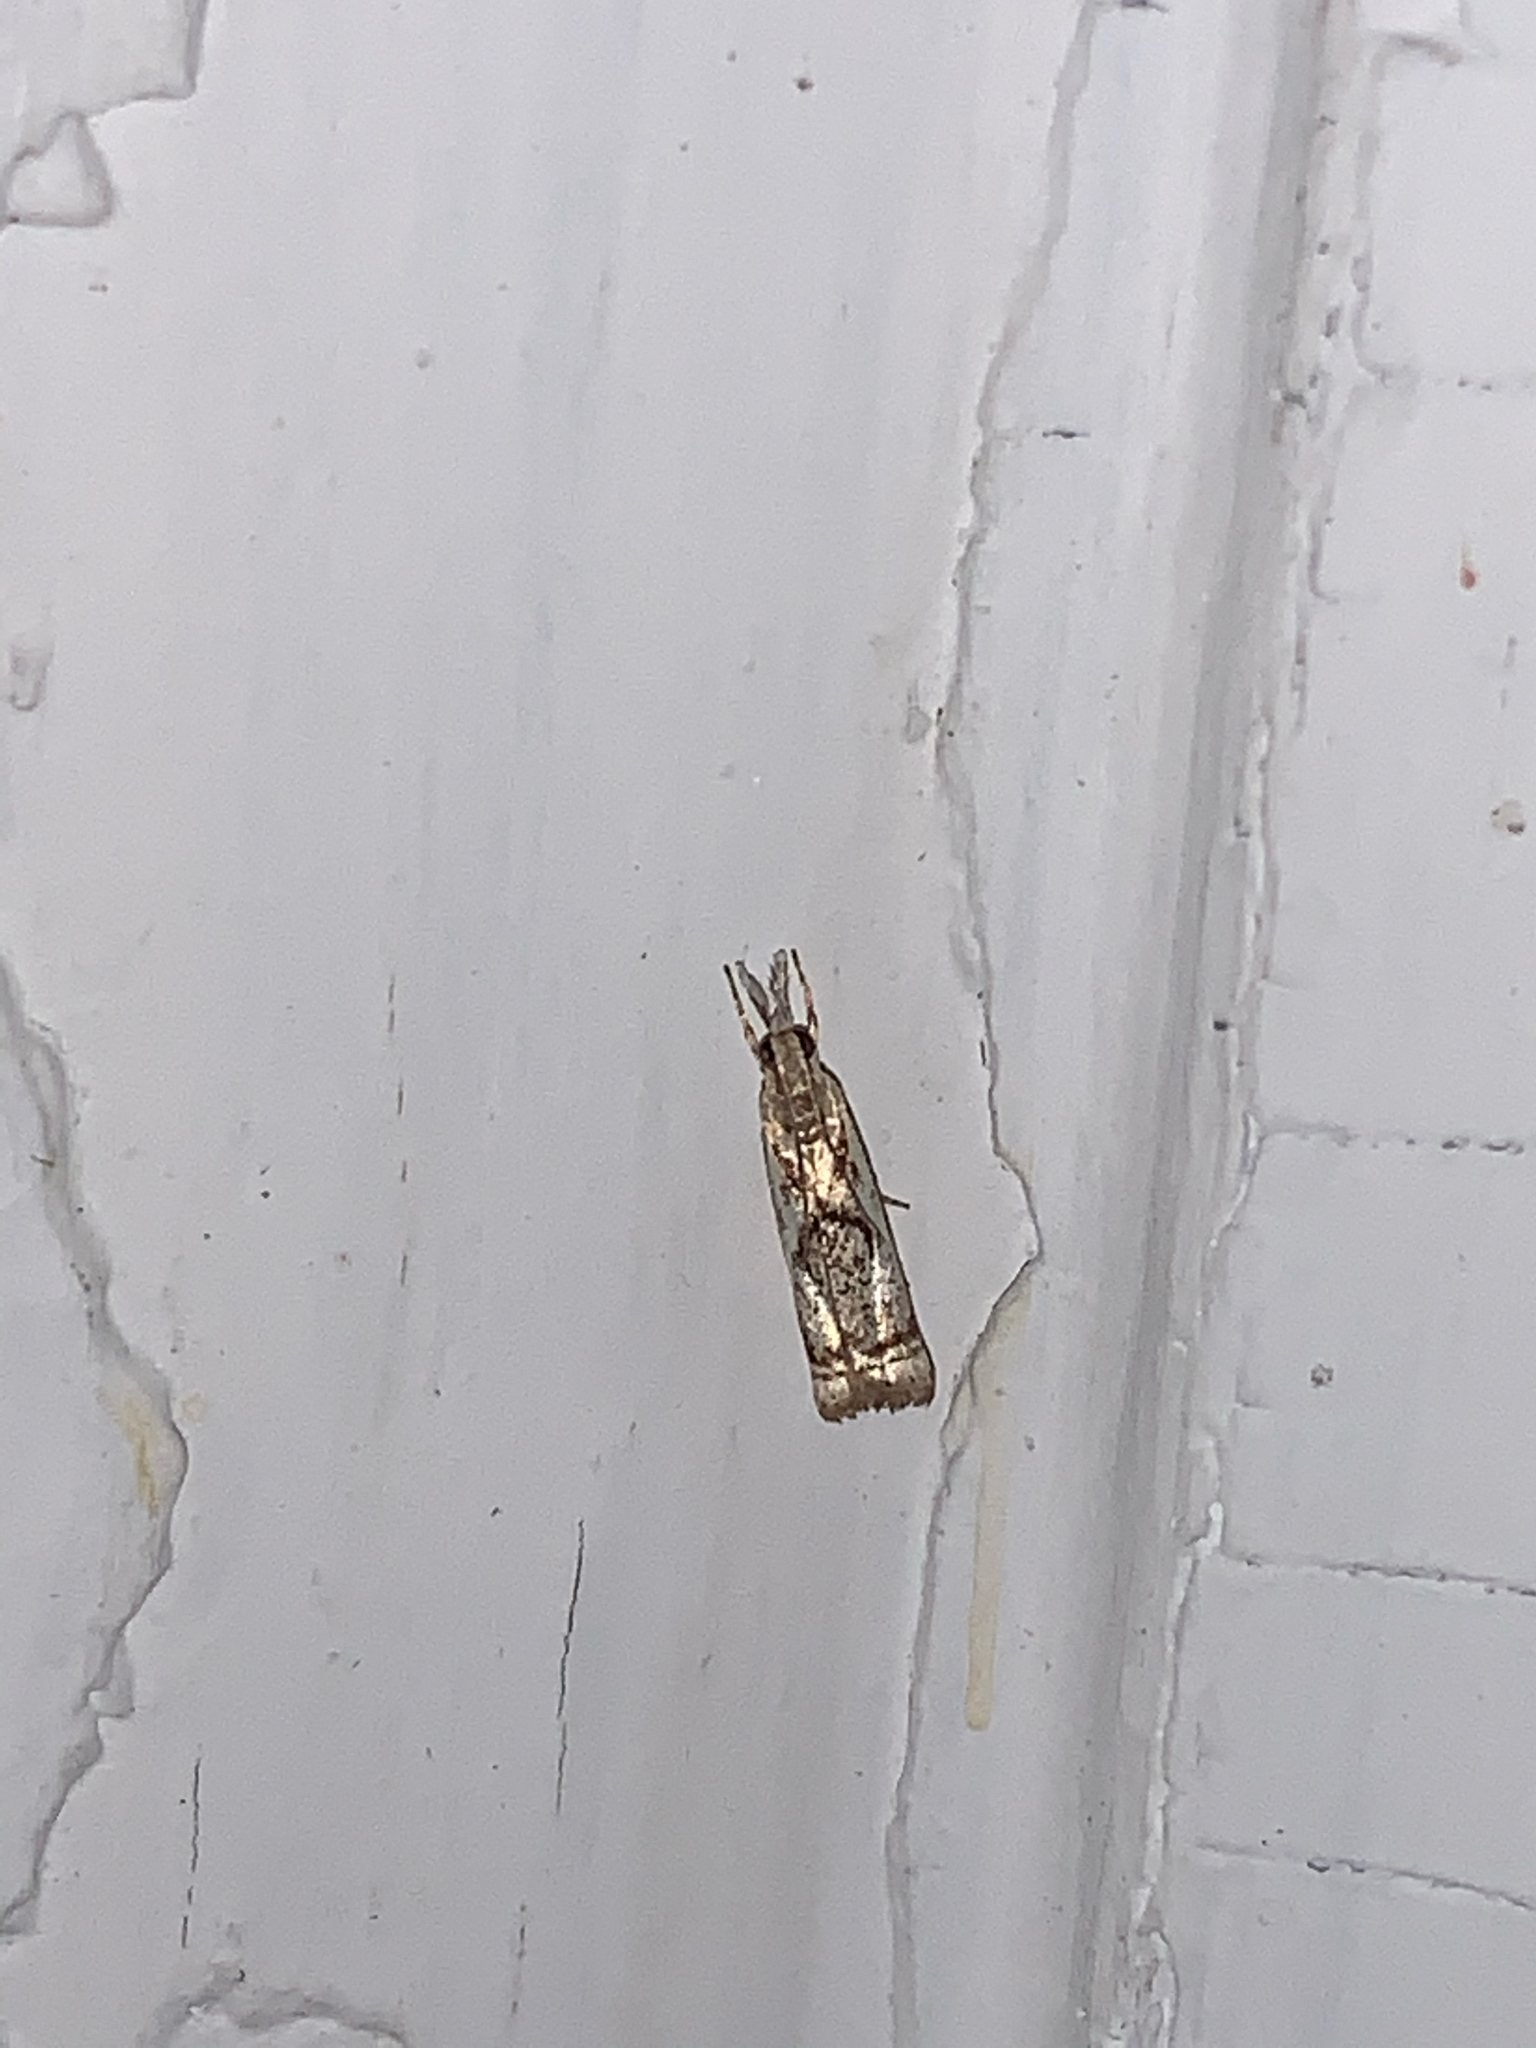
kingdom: Animalia
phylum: Arthropoda
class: Insecta
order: Lepidoptera
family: Crambidae
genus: Microcrambus
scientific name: Microcrambus elegans
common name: Elegant grass-veneer
